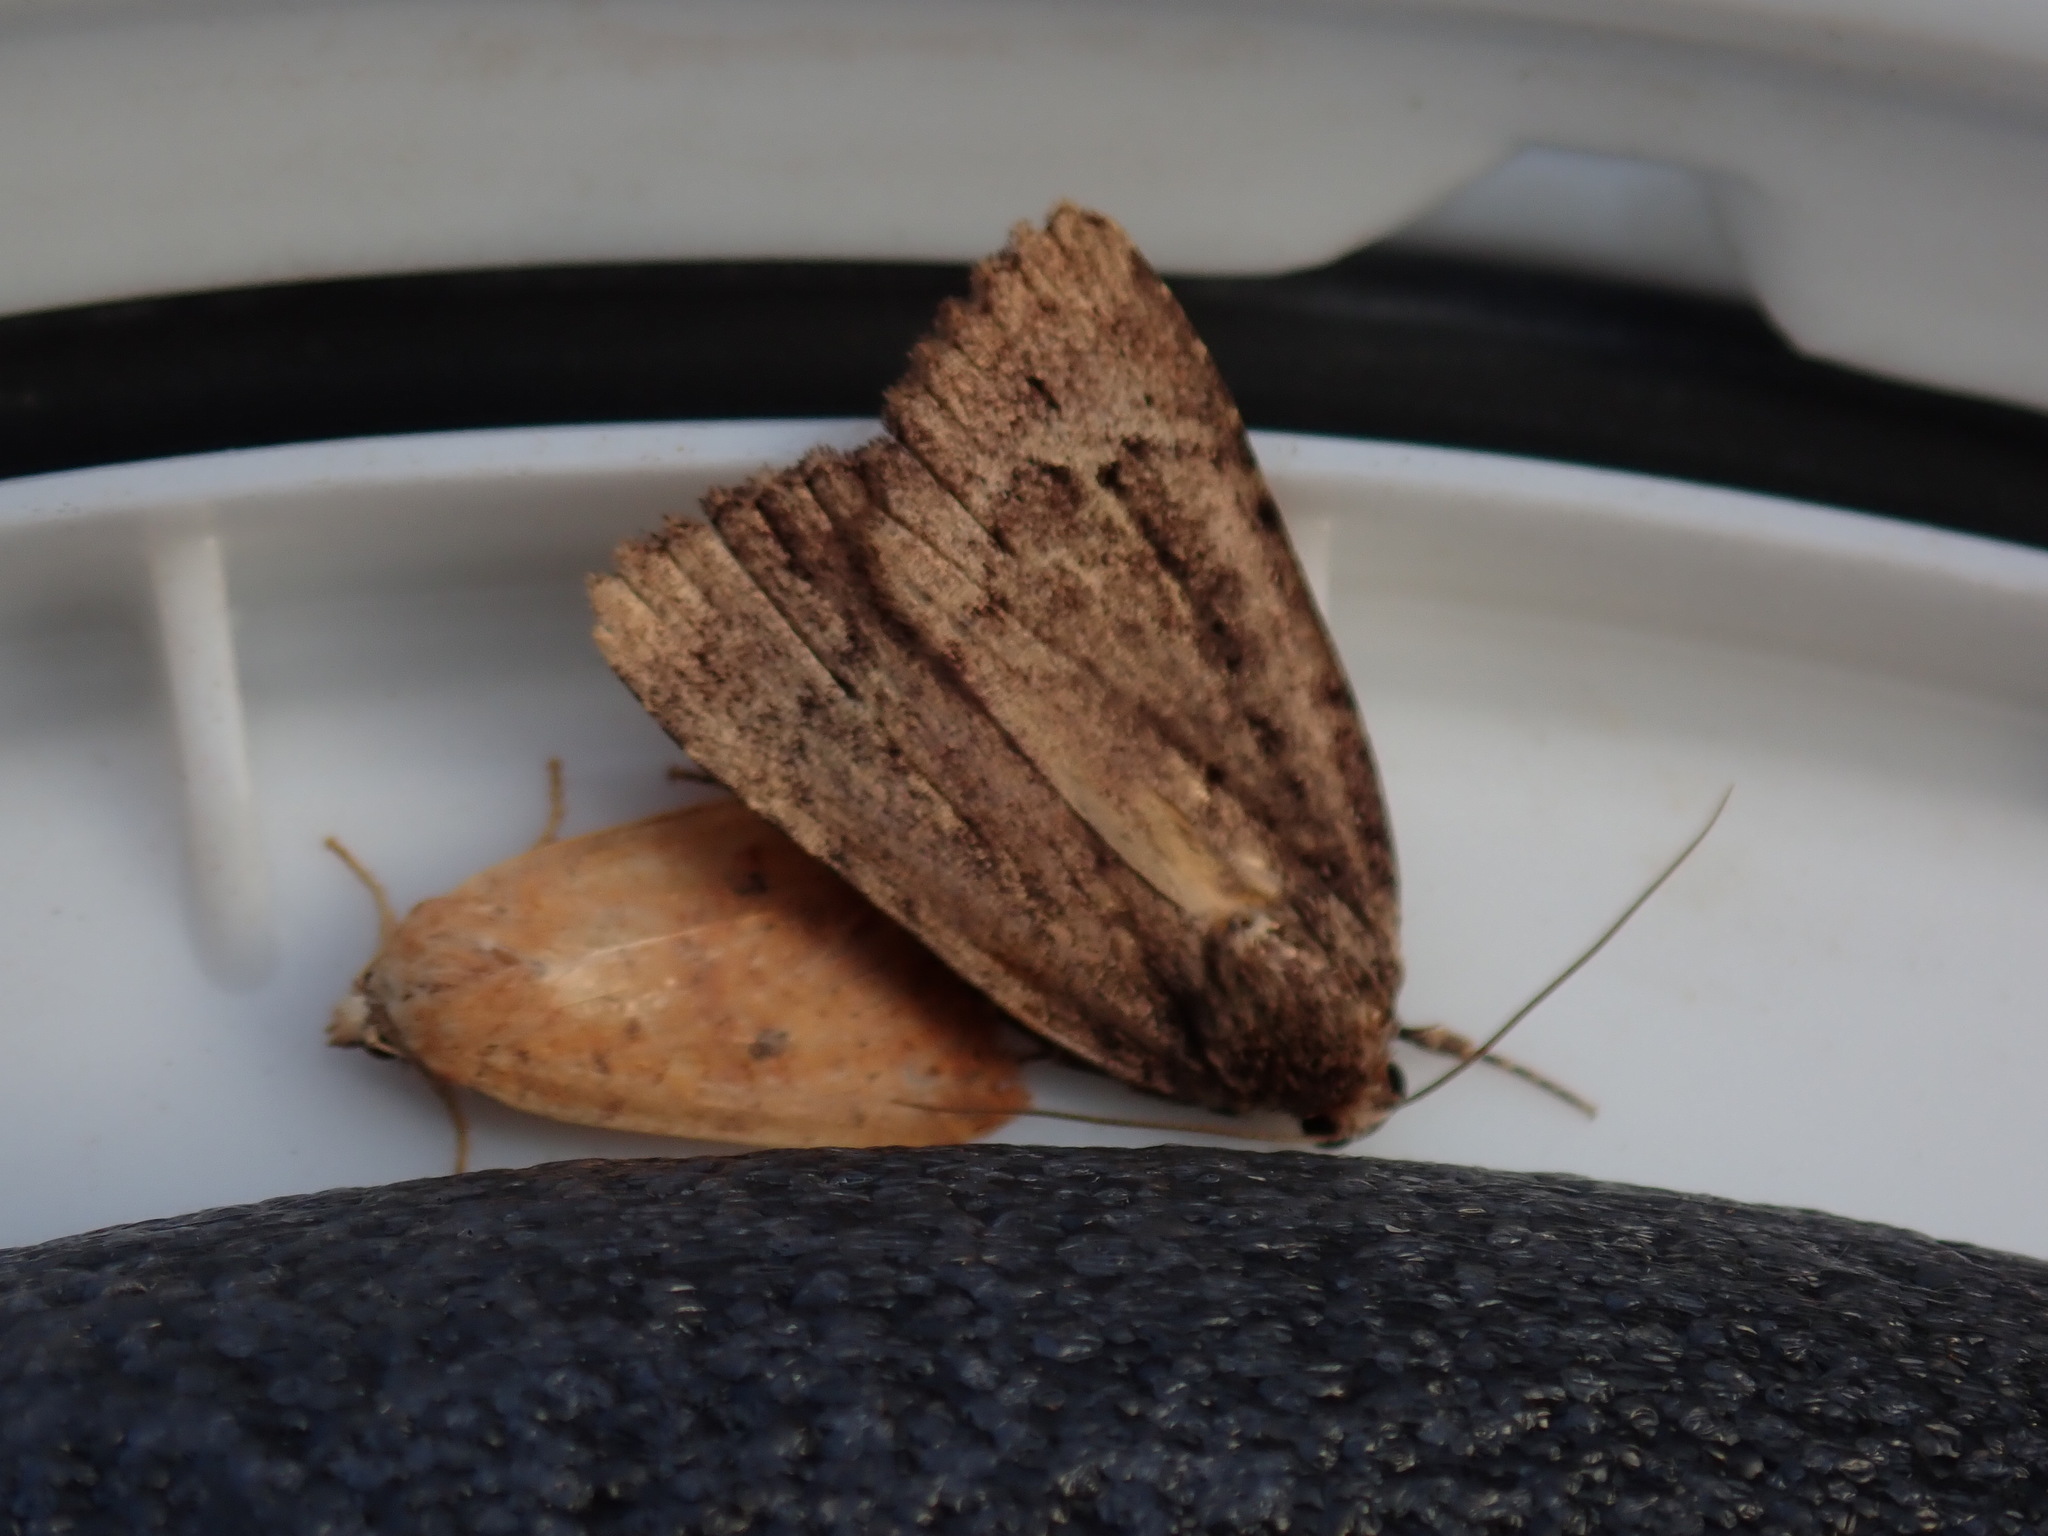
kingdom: Animalia
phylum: Arthropoda
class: Insecta
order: Lepidoptera
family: Noctuidae
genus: Amphipyra
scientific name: Amphipyra pyramidoides
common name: American copper underwing
